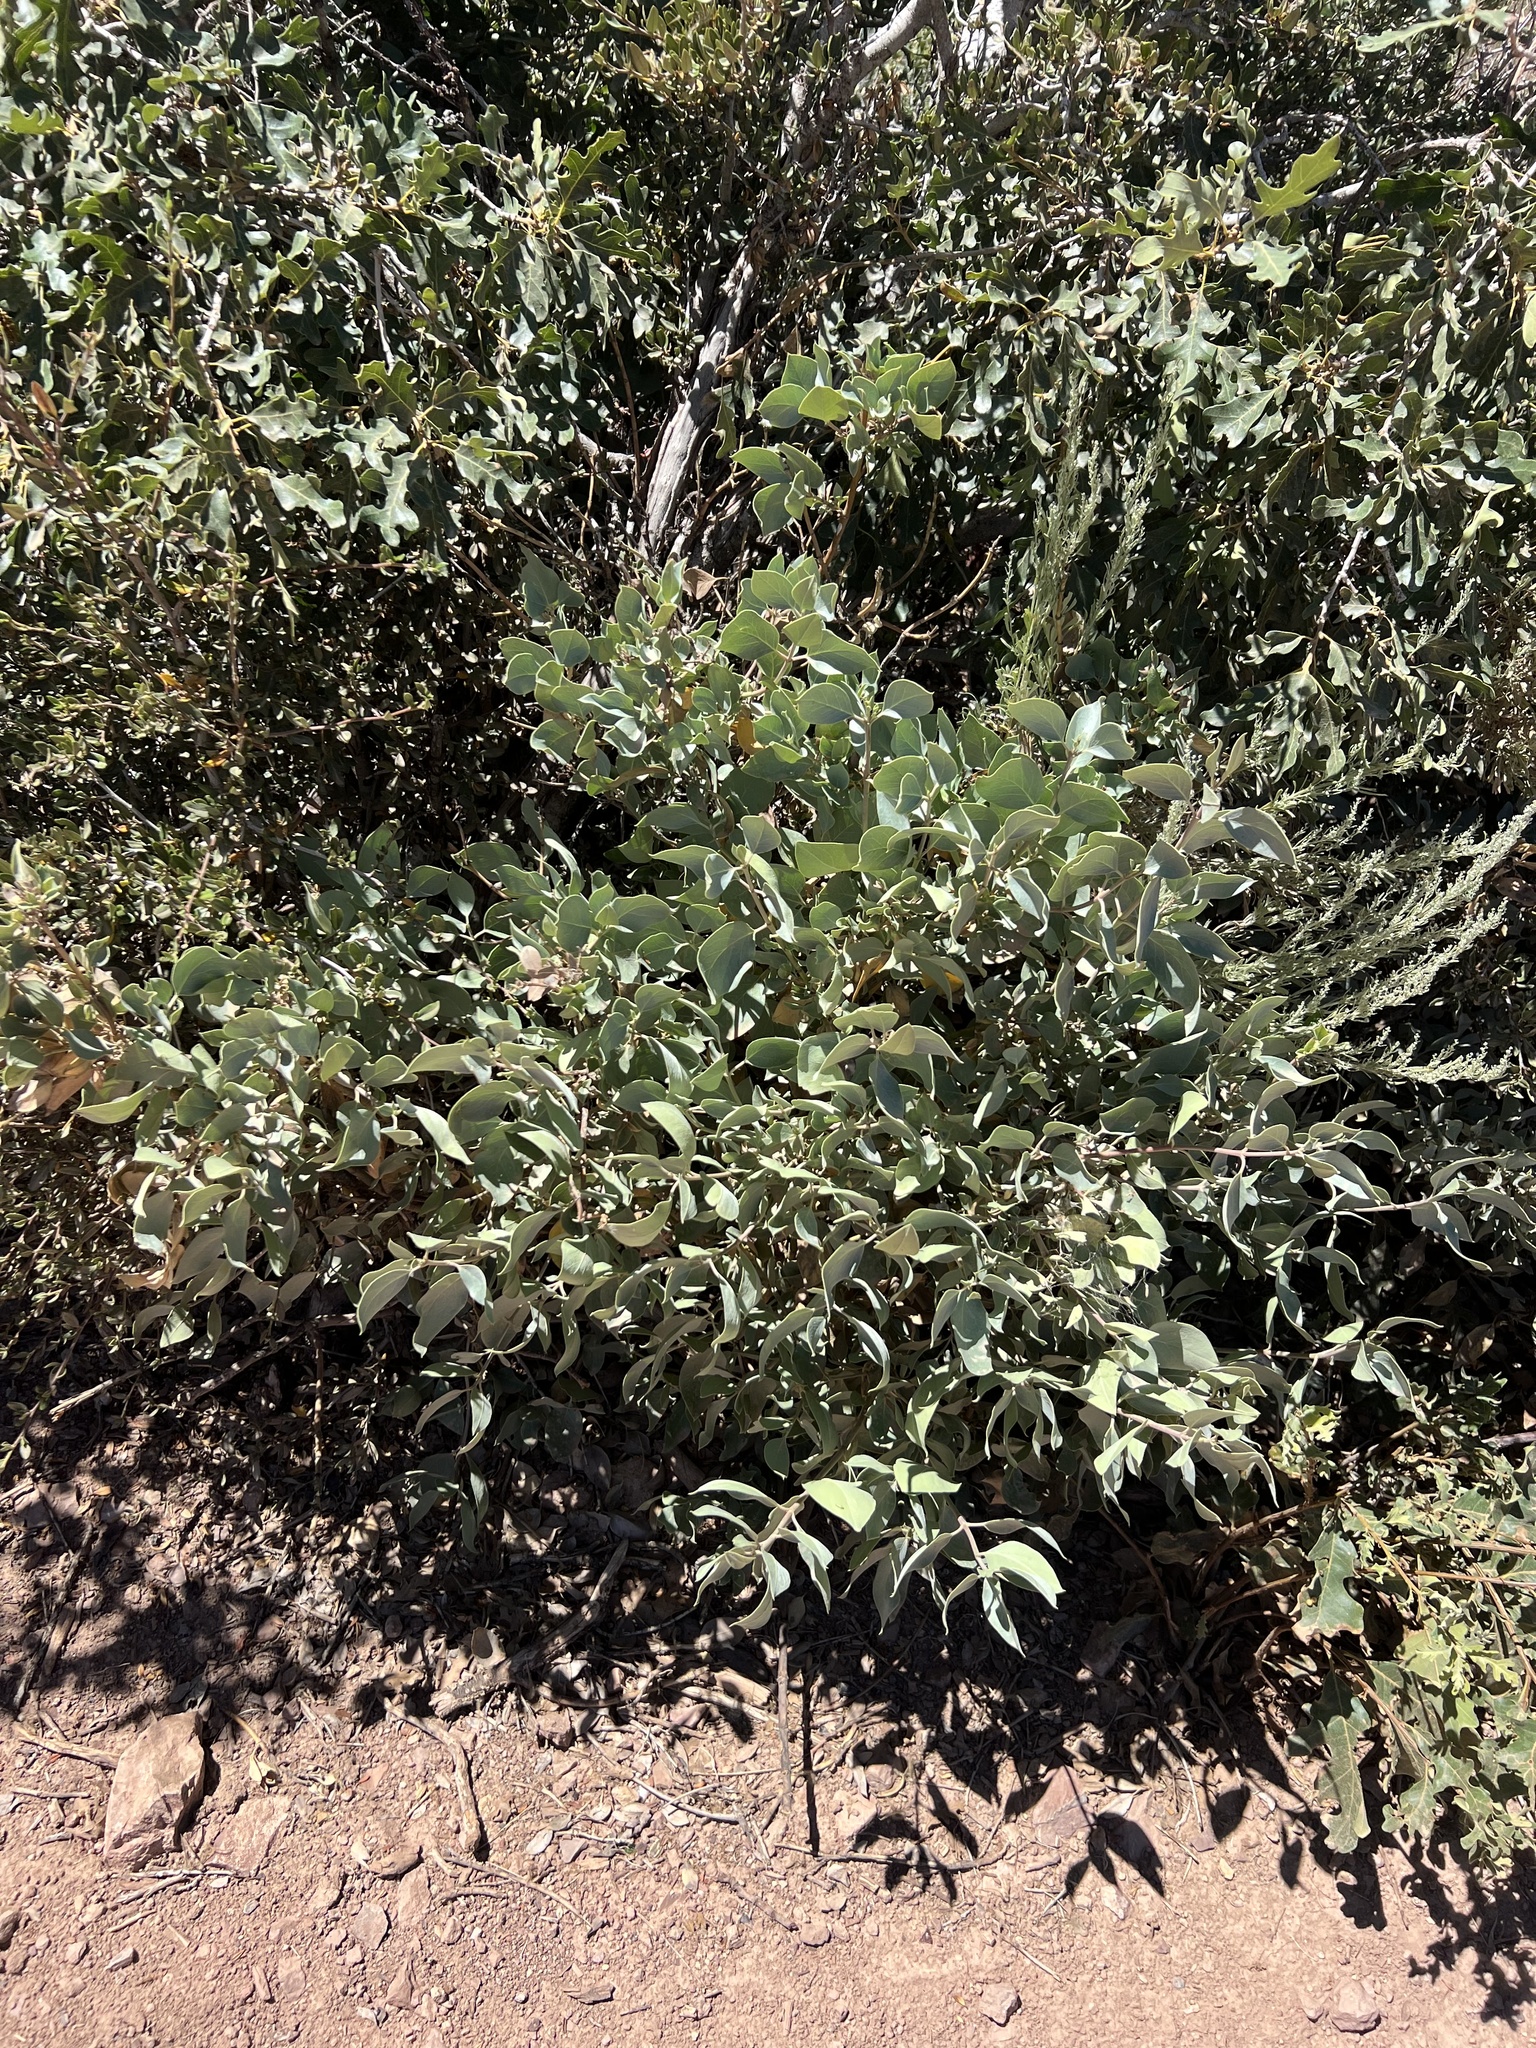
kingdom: Plantae
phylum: Tracheophyta
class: Magnoliopsida
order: Garryales
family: Garryaceae
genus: Garrya
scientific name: Garrya flavescens
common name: Ashy silk-tassel
